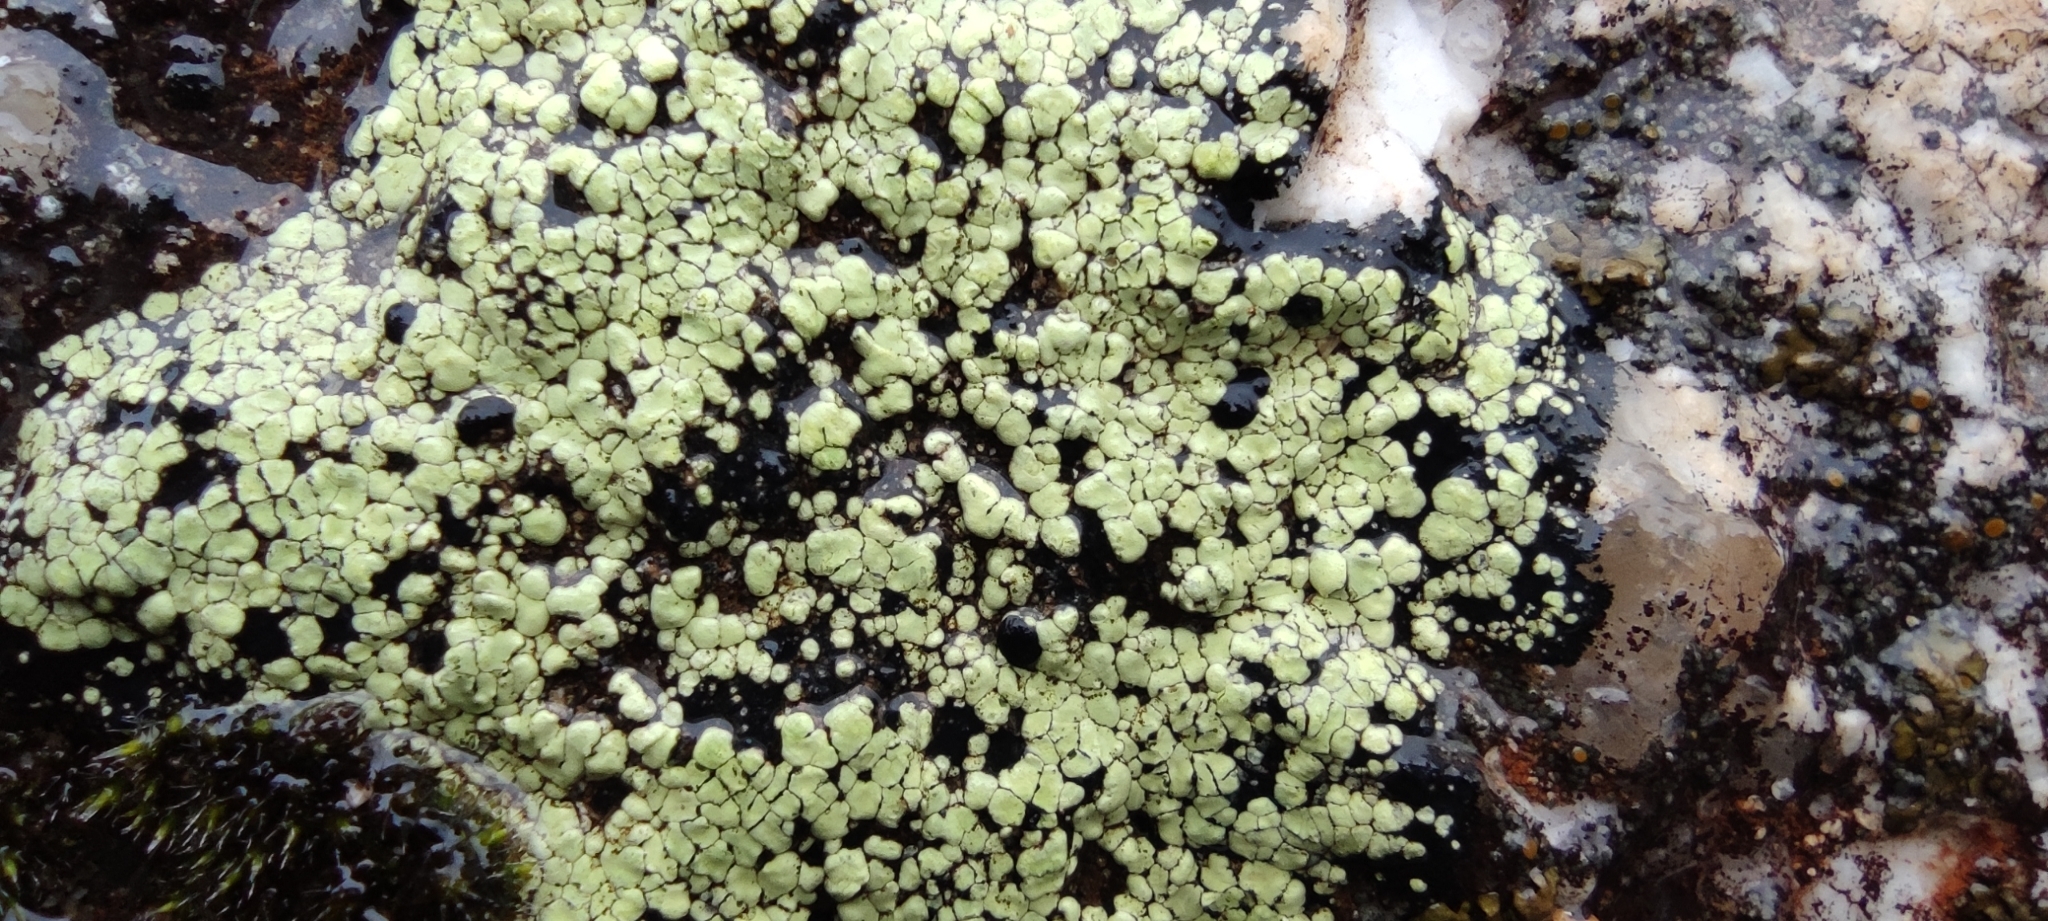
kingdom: Fungi
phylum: Ascomycota
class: Lecanoromycetes
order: Rhizocarpales
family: Rhizocarpaceae
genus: Rhizocarpon
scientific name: Rhizocarpon geographicum
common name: Yellow map lichen
